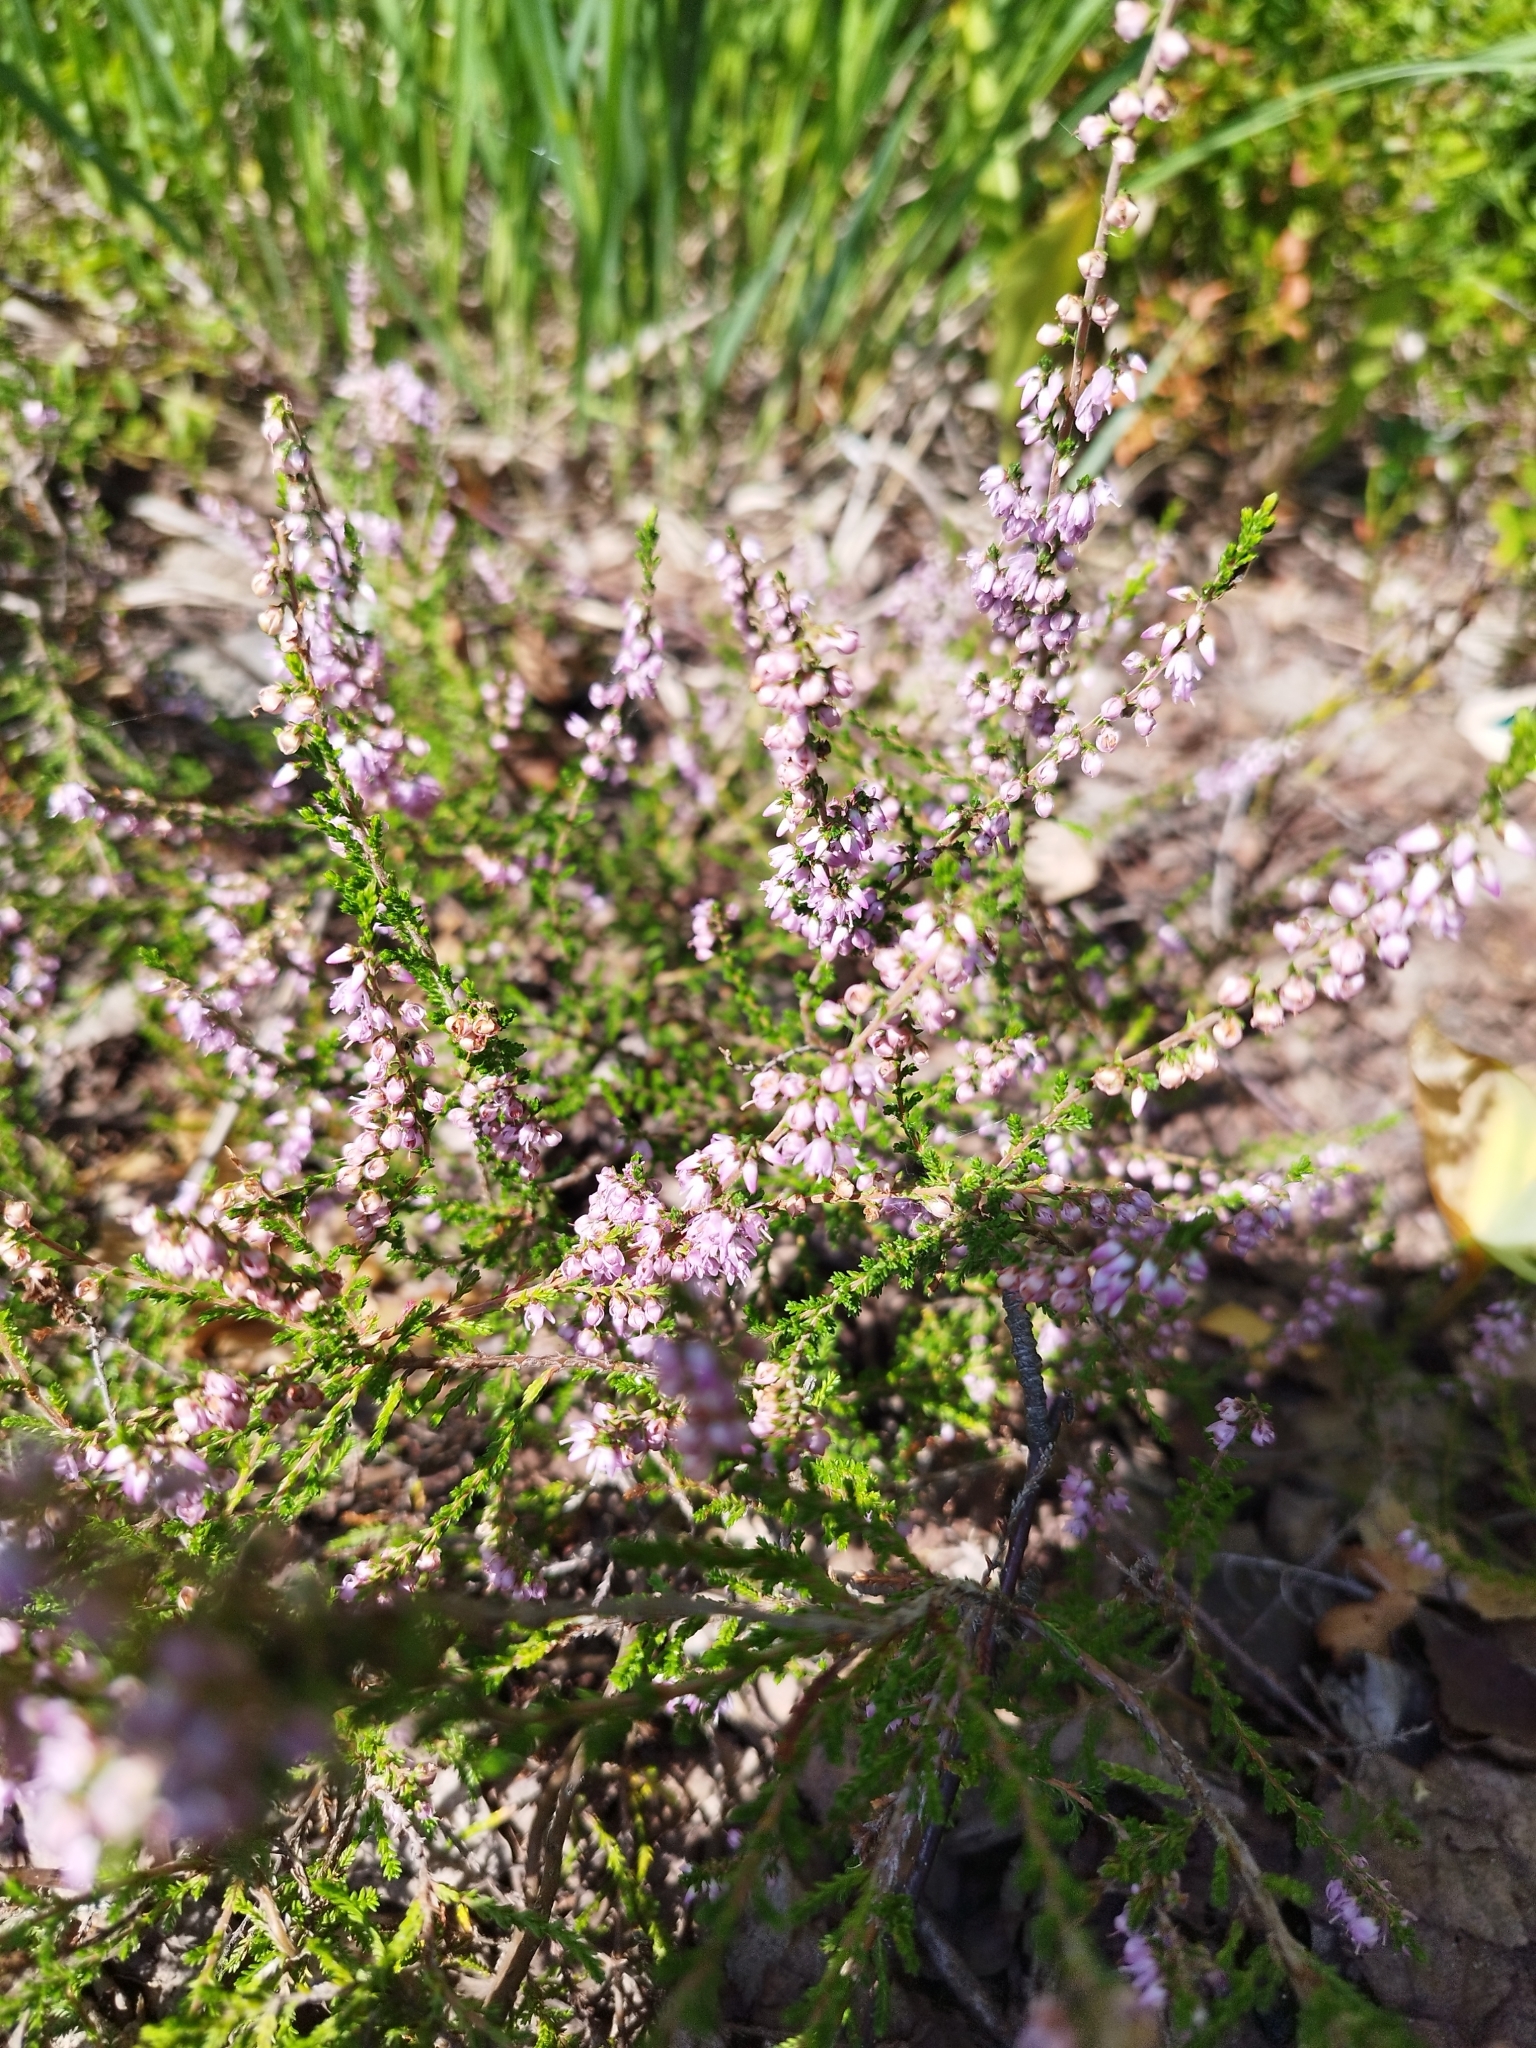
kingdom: Plantae
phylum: Tracheophyta
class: Magnoliopsida
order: Ericales
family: Ericaceae
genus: Calluna
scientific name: Calluna vulgaris
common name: Heather
